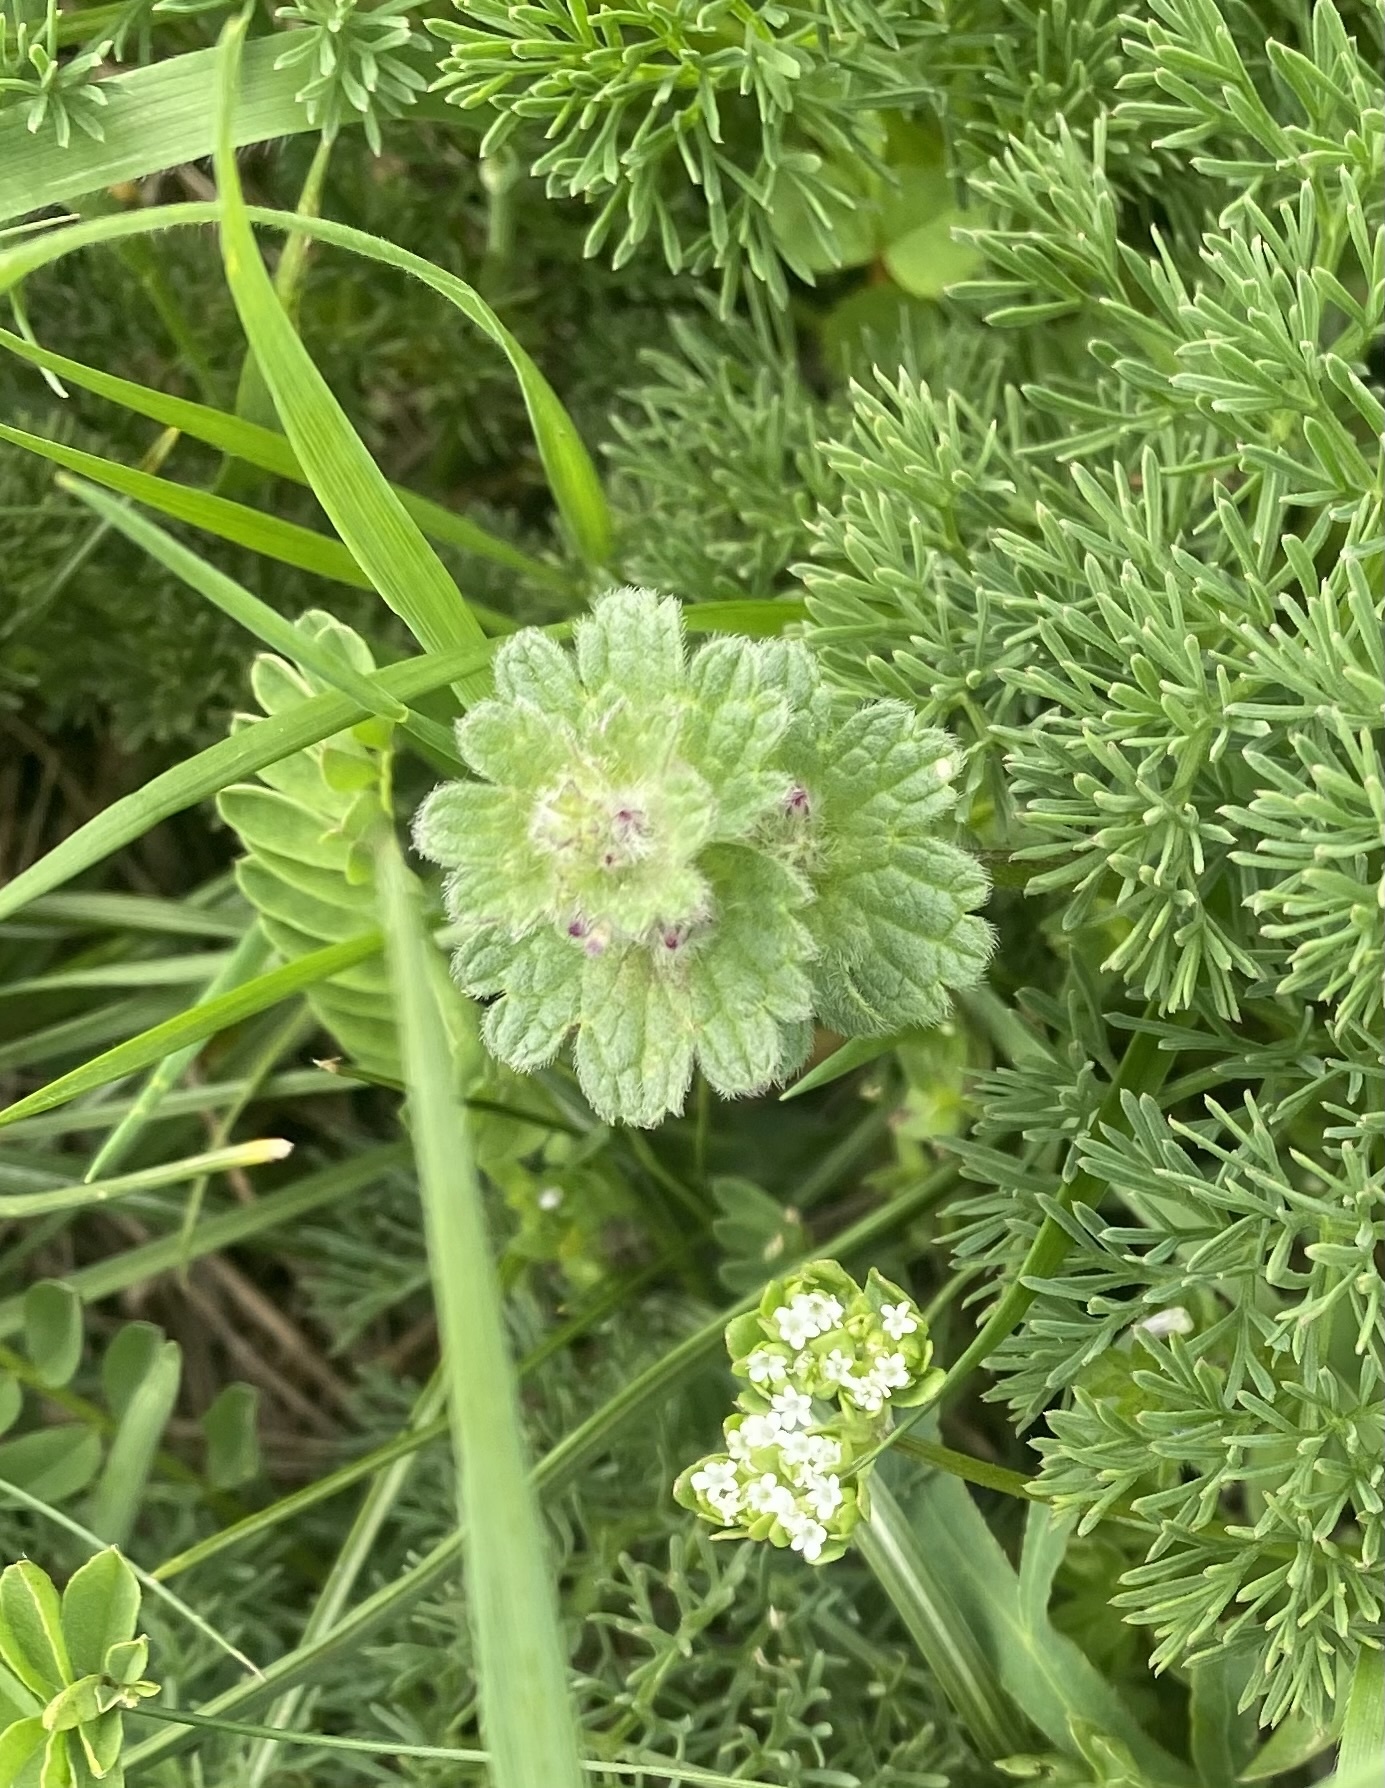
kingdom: Plantae
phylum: Tracheophyta
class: Magnoliopsida
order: Lamiales
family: Lamiaceae
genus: Lamium
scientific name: Lamium amplexicaule
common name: Henbit dead-nettle
